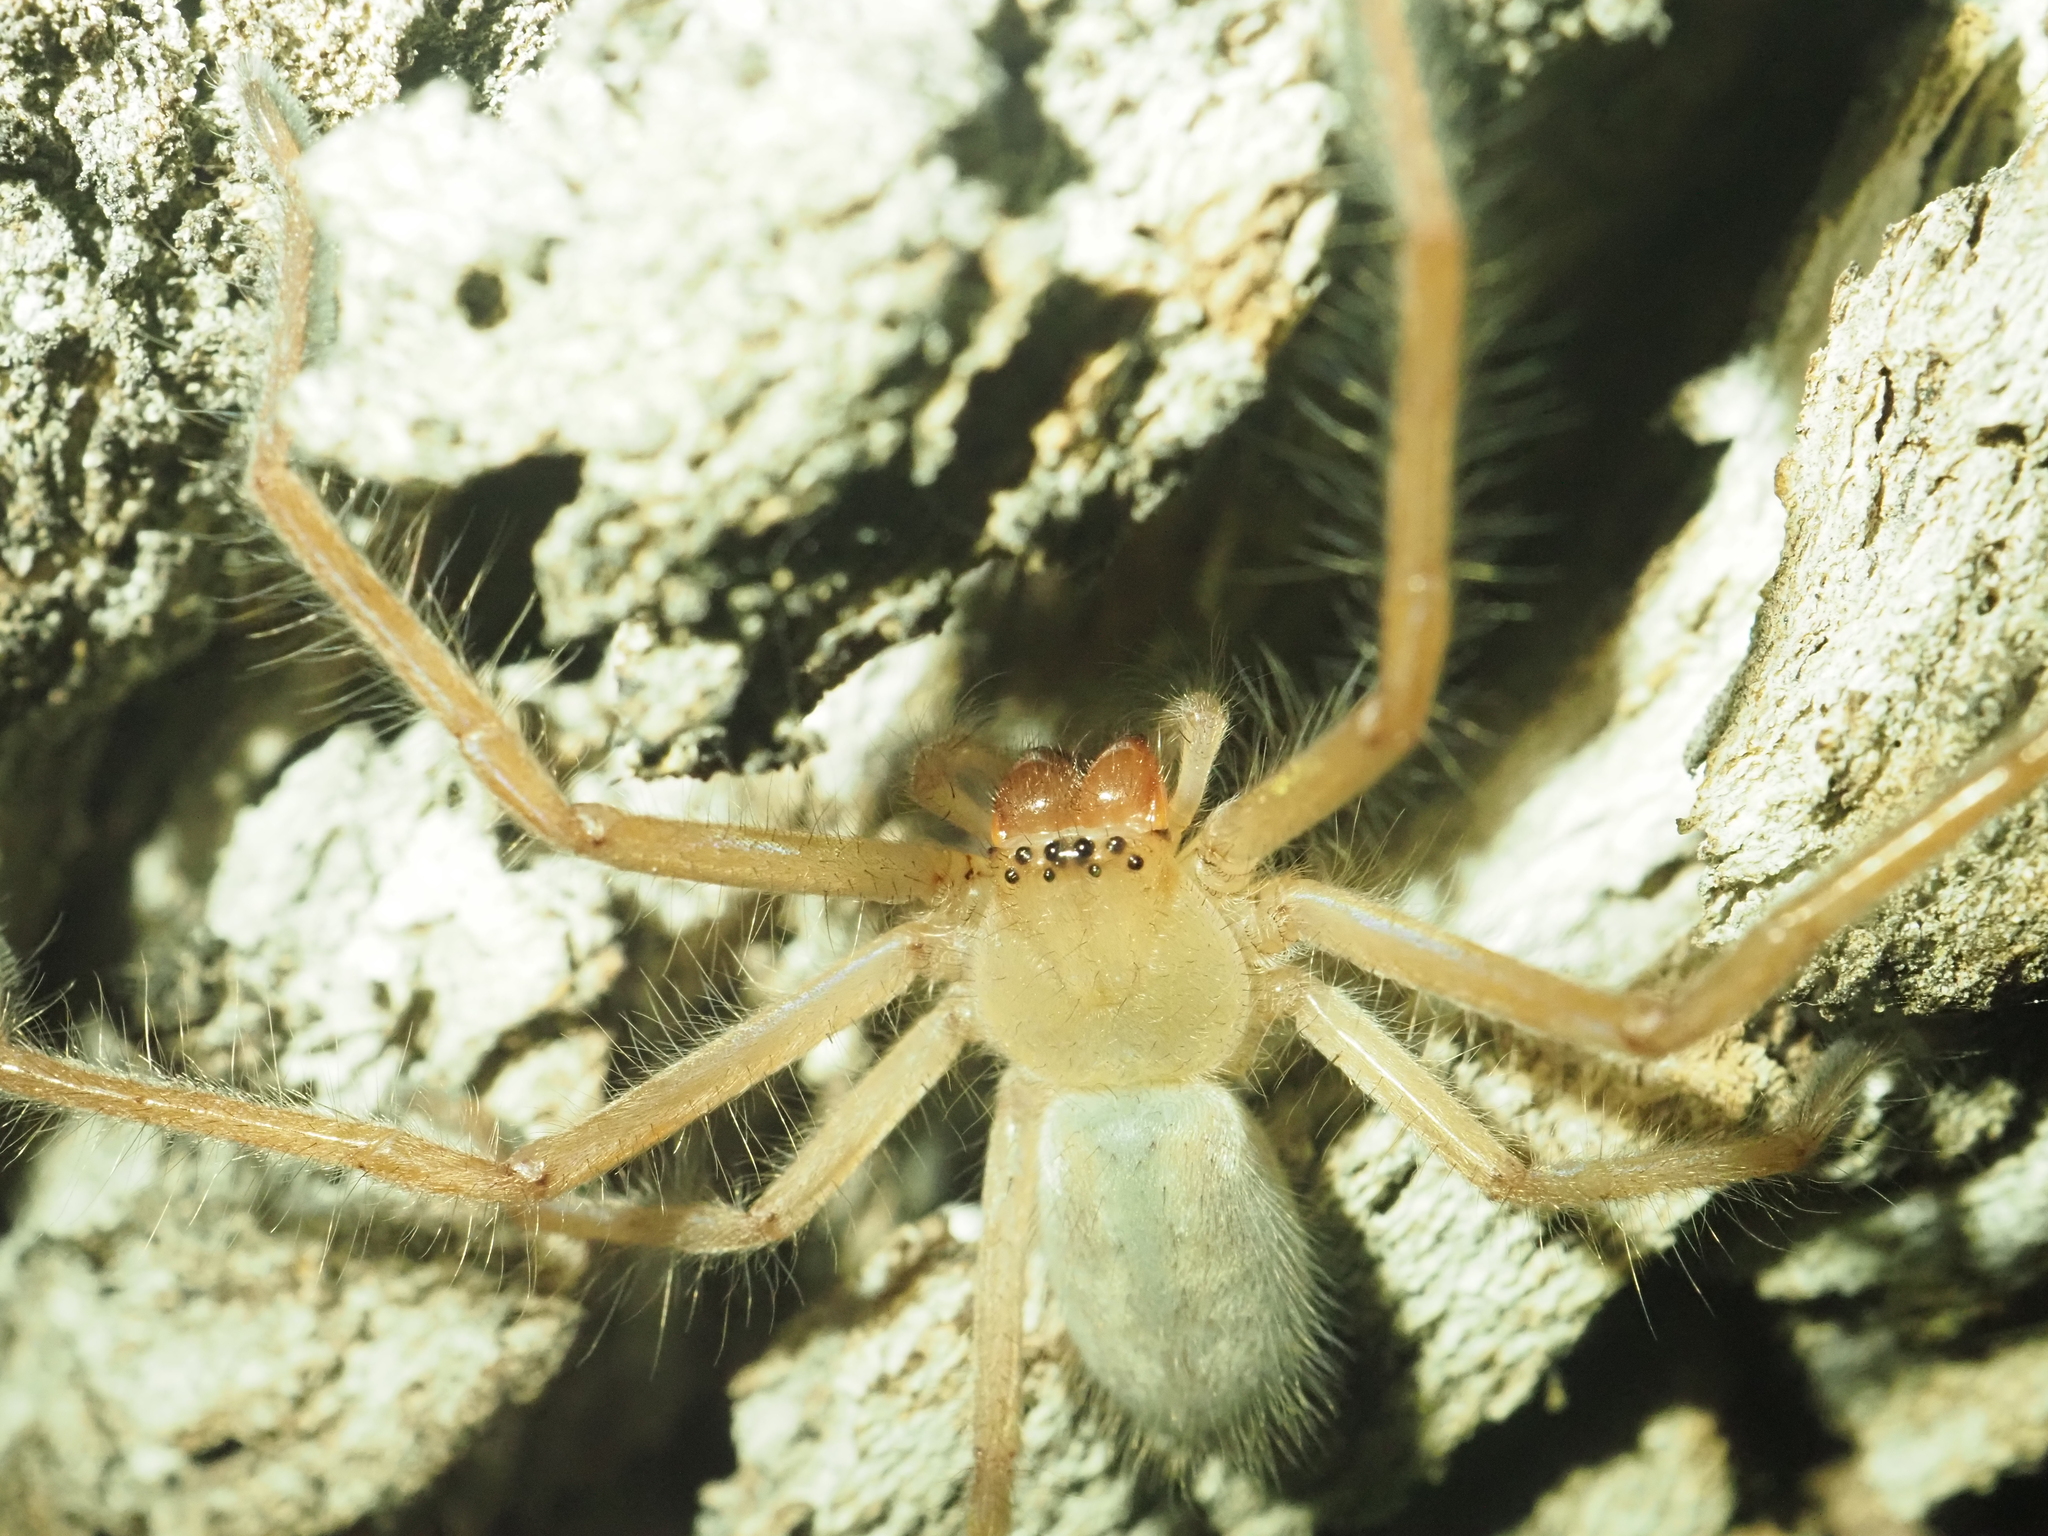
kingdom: Animalia
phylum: Arthropoda
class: Arachnida
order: Araneae
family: Sparassidae
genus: Delena
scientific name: Delena cancerides
